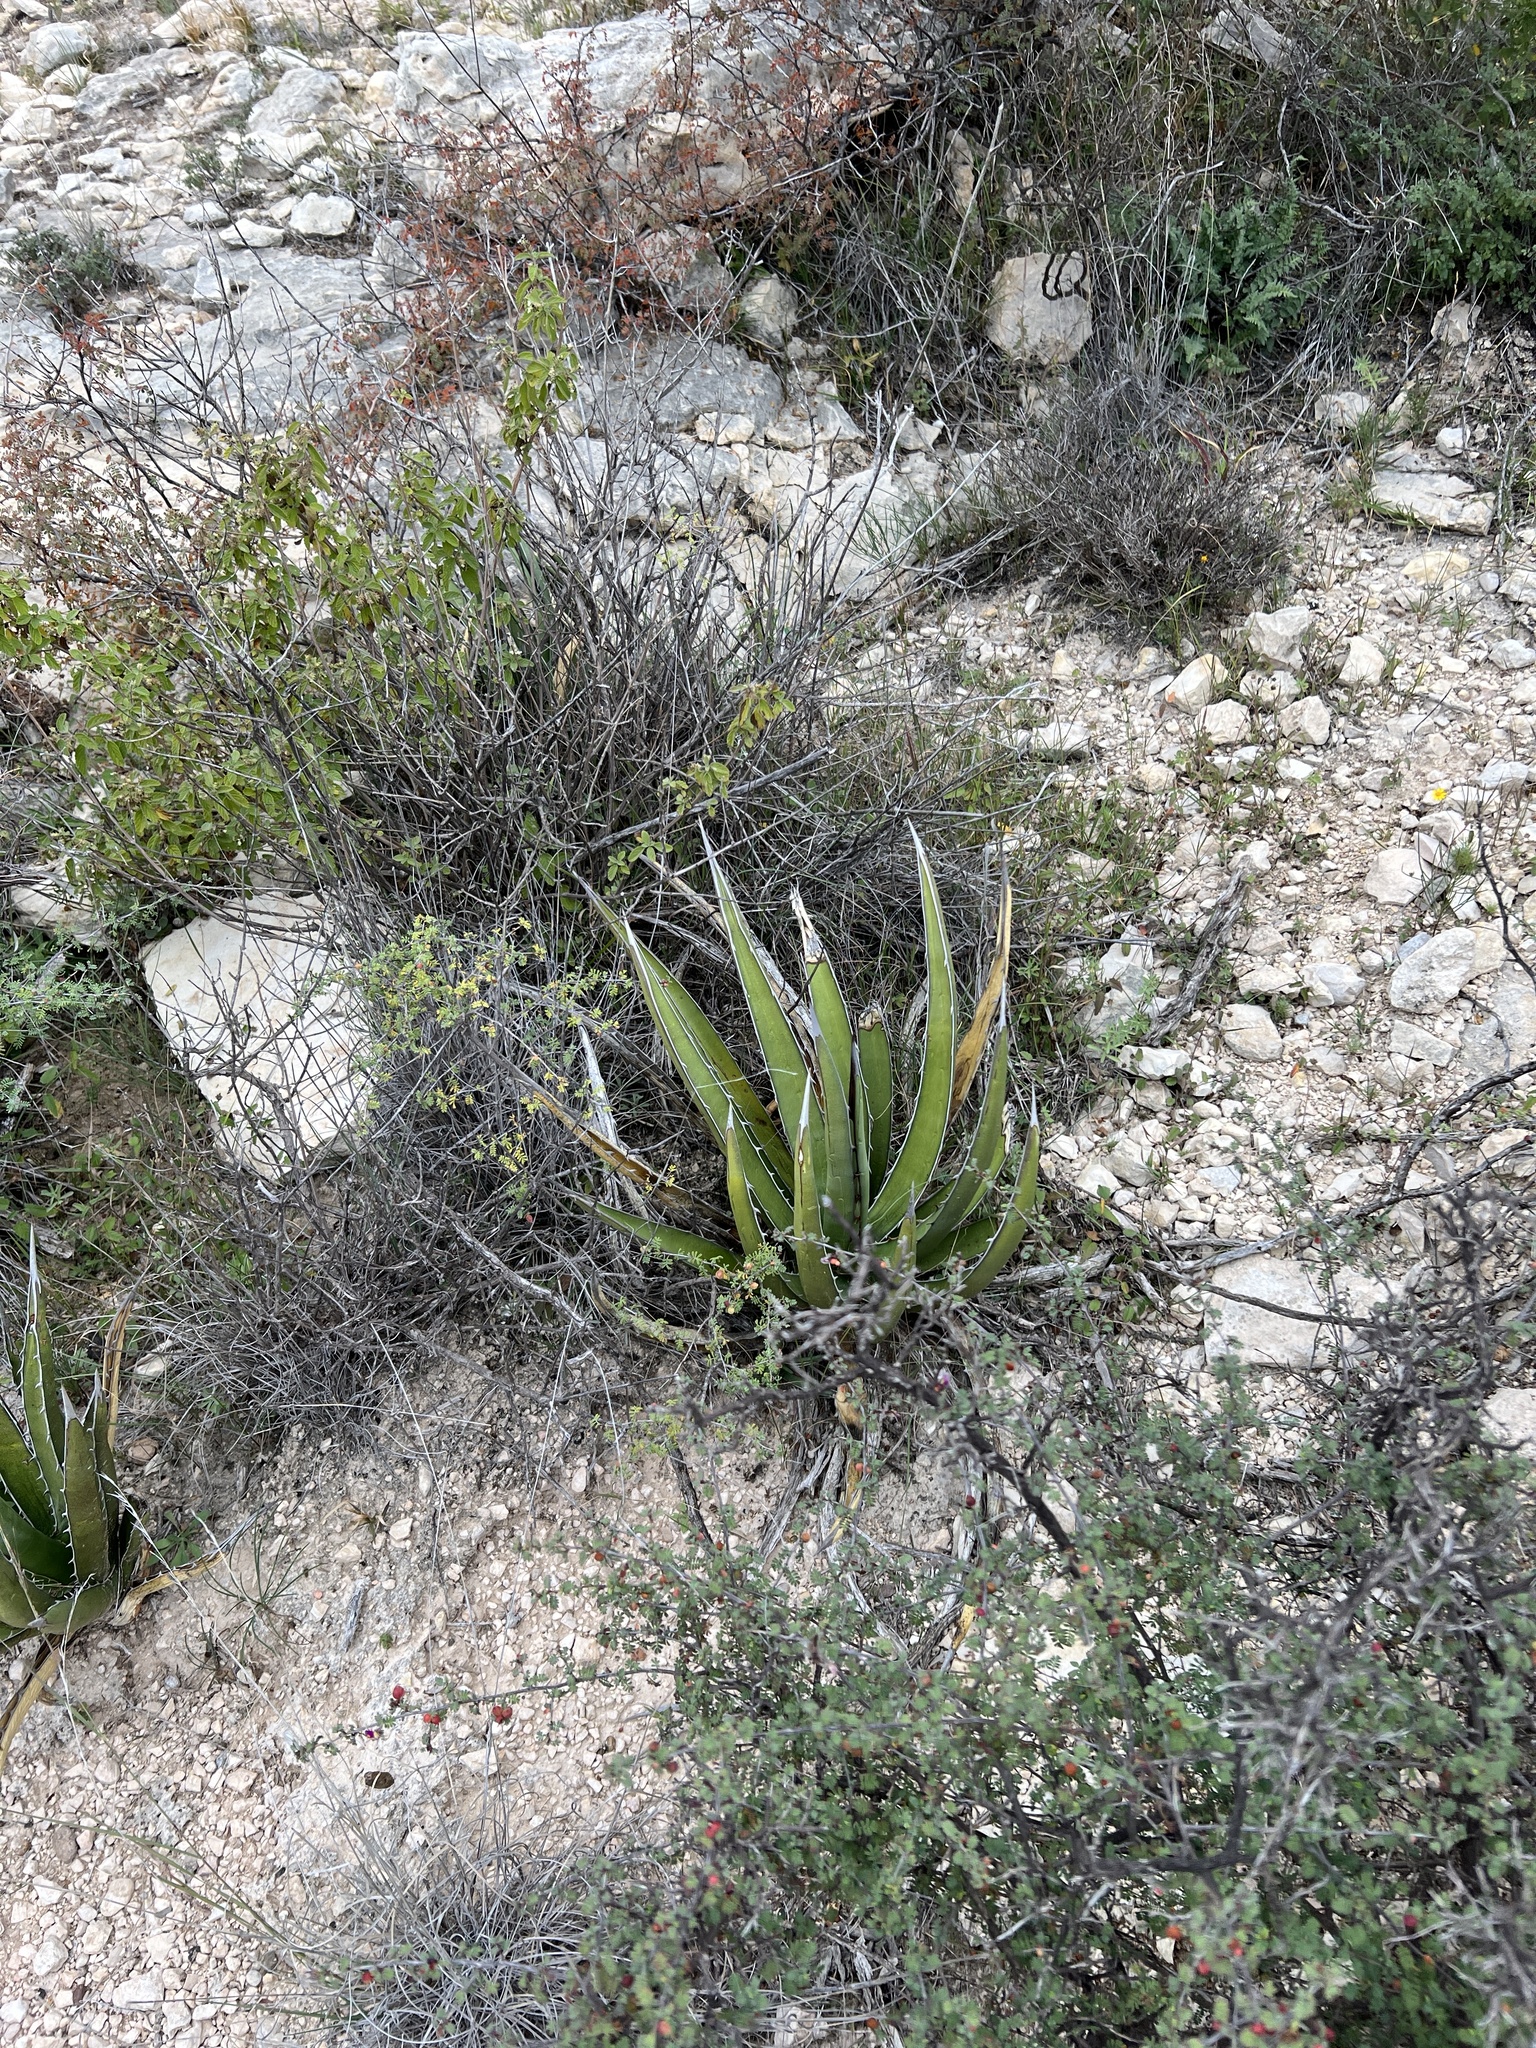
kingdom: Plantae
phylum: Tracheophyta
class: Liliopsida
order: Asparagales
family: Asparagaceae
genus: Agave
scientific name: Agave lechuguilla
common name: Lecheguilla agave
